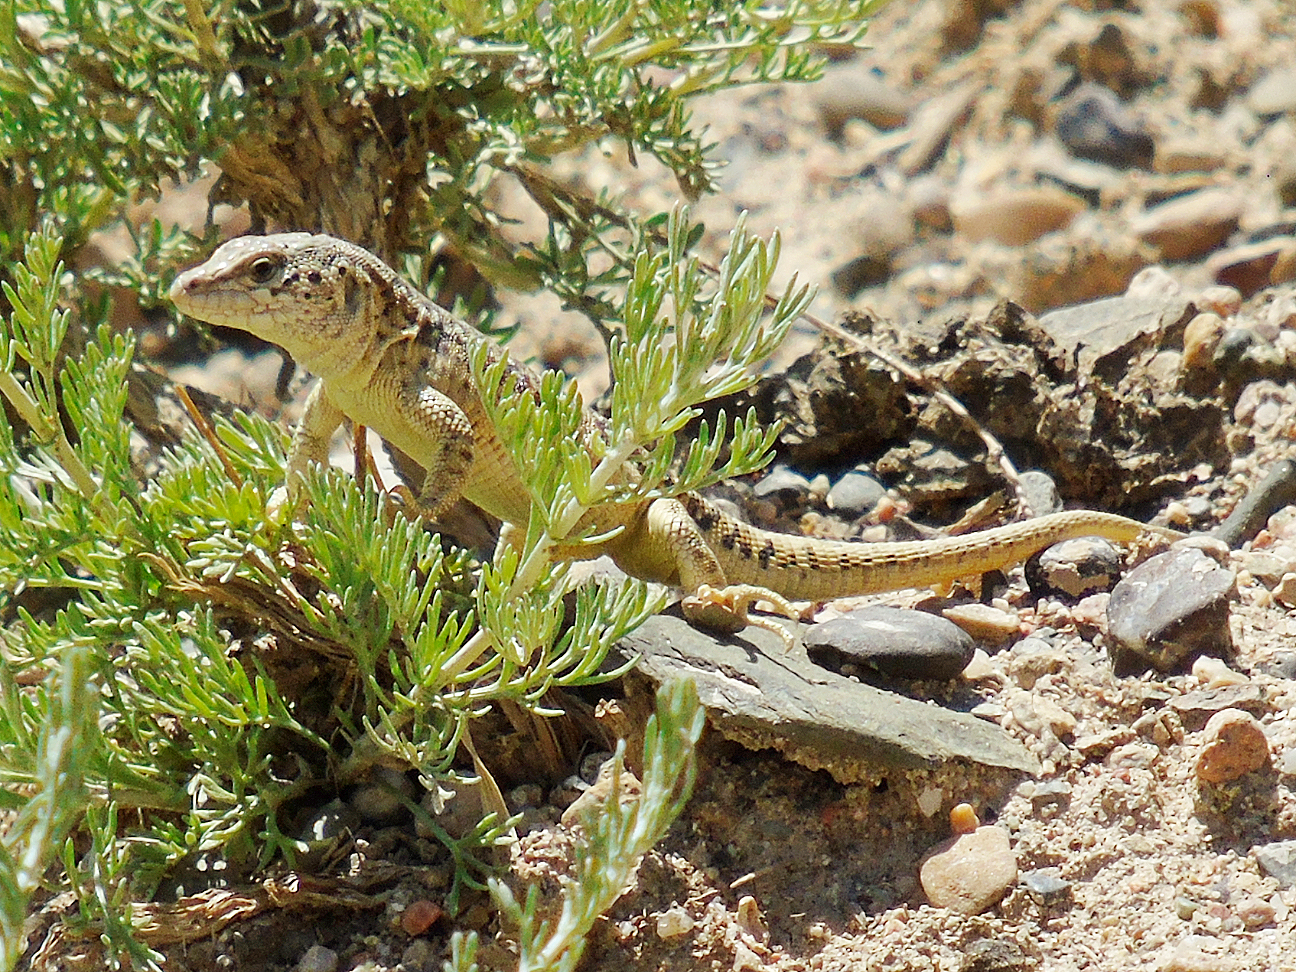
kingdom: Animalia
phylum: Chordata
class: Squamata
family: Lacertidae
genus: Eremias
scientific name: Eremias szczerbaki
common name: Szczerbak’s racerunner
